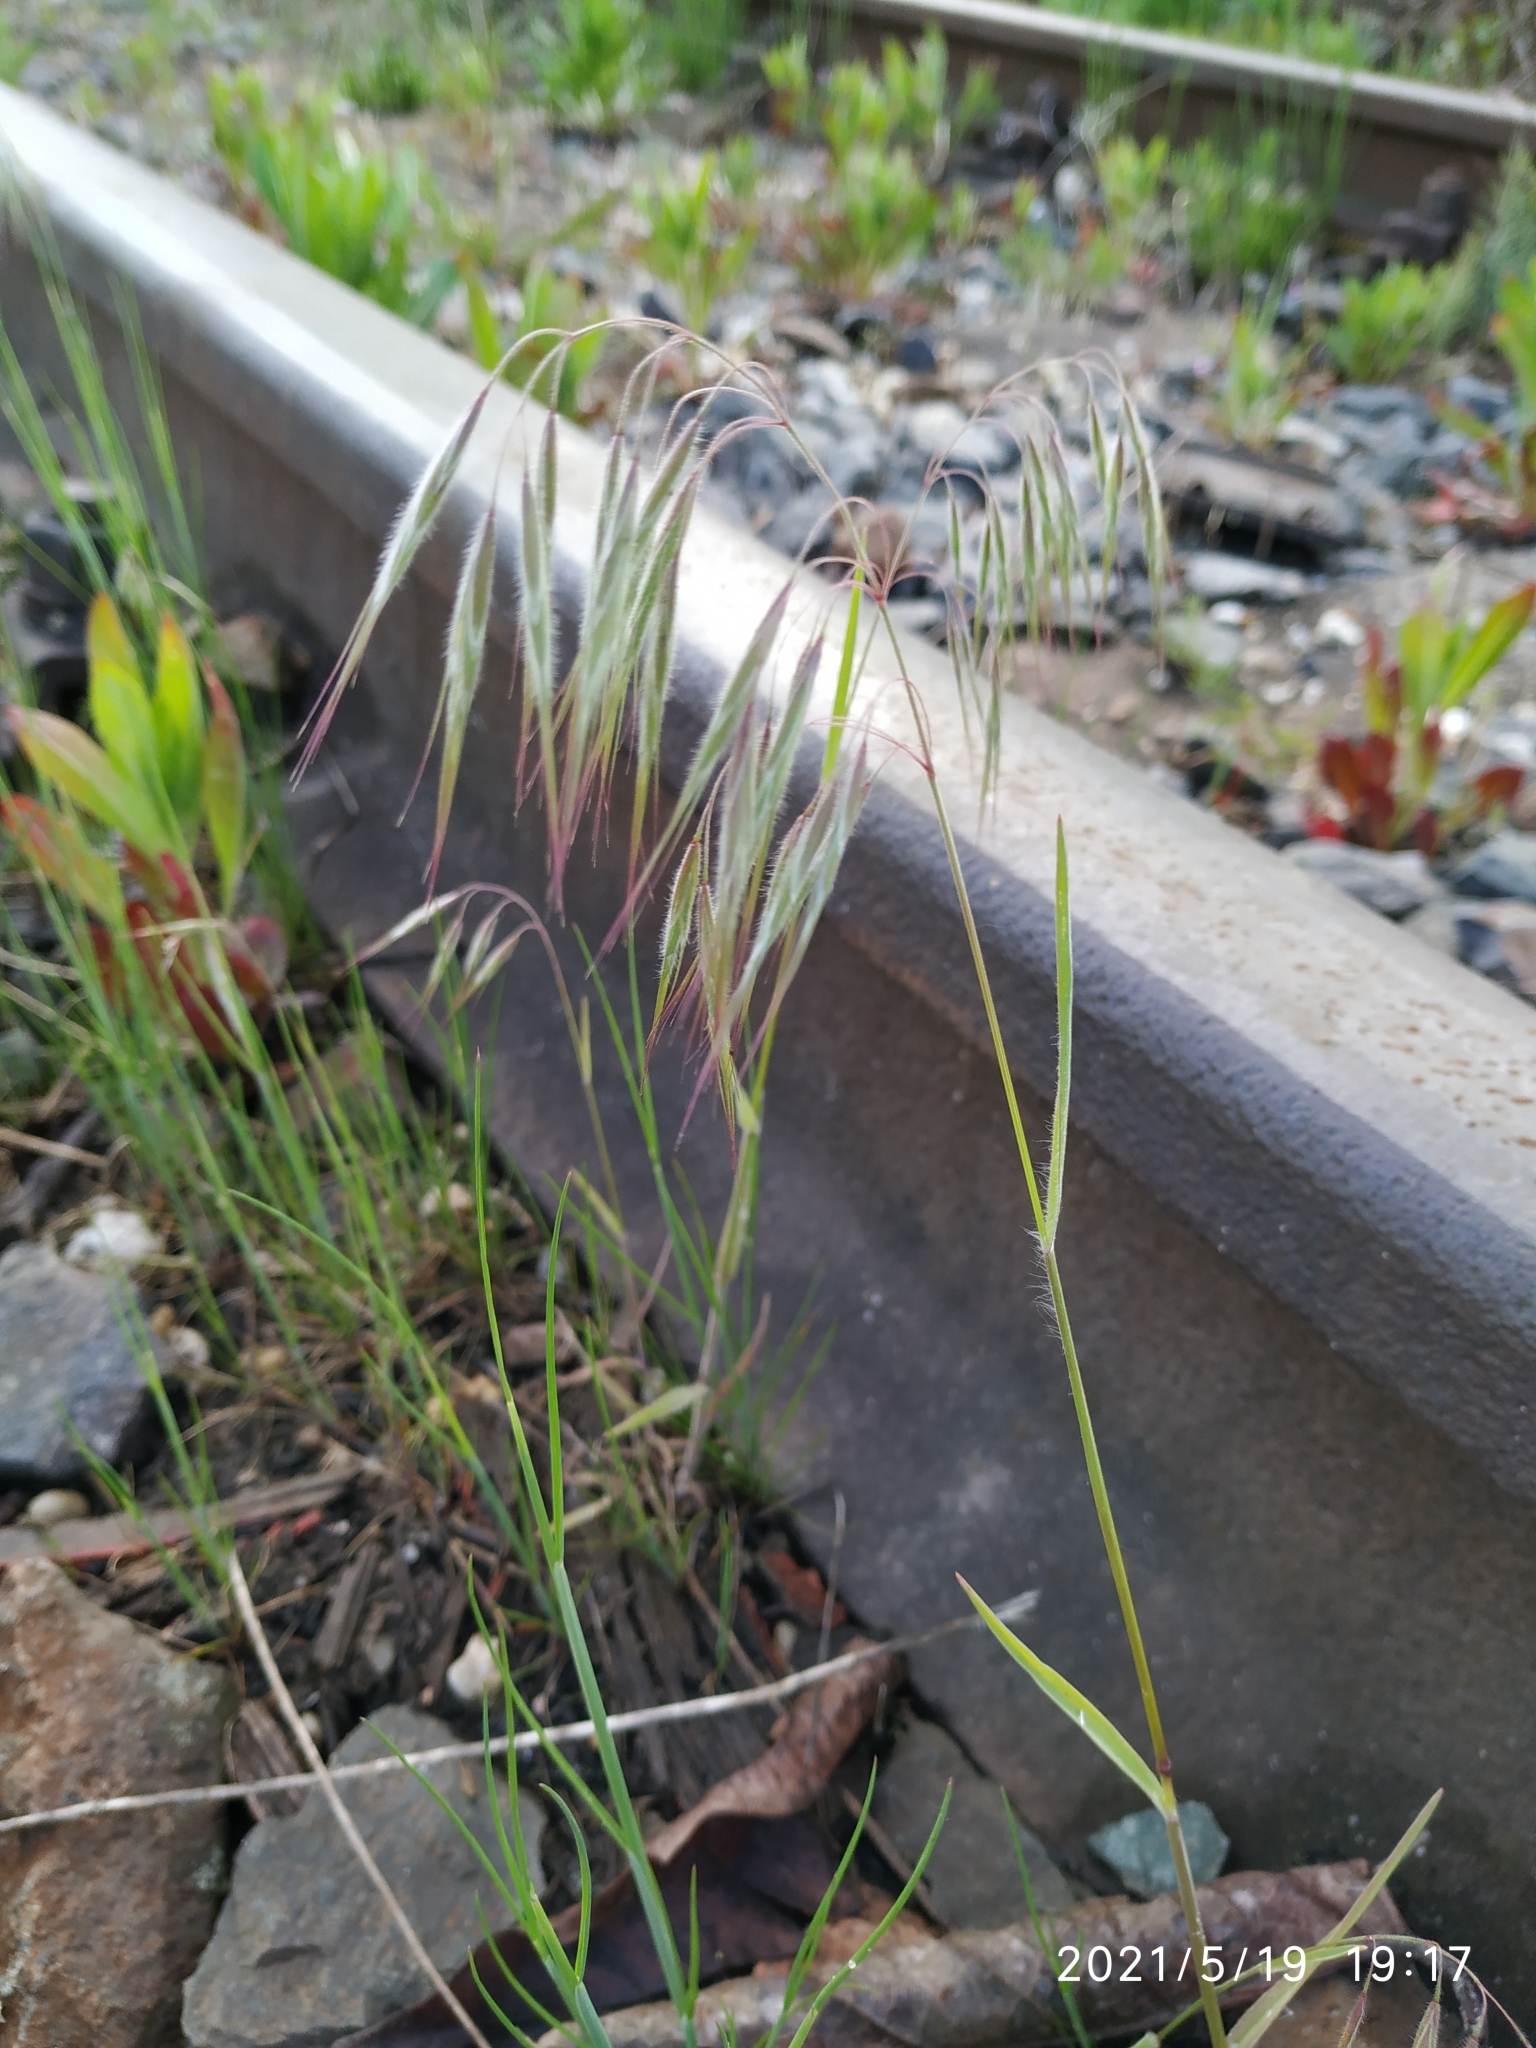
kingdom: Plantae
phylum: Tracheophyta
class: Liliopsida
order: Poales
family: Poaceae
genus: Bromus
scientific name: Bromus tectorum
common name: Cheatgrass
